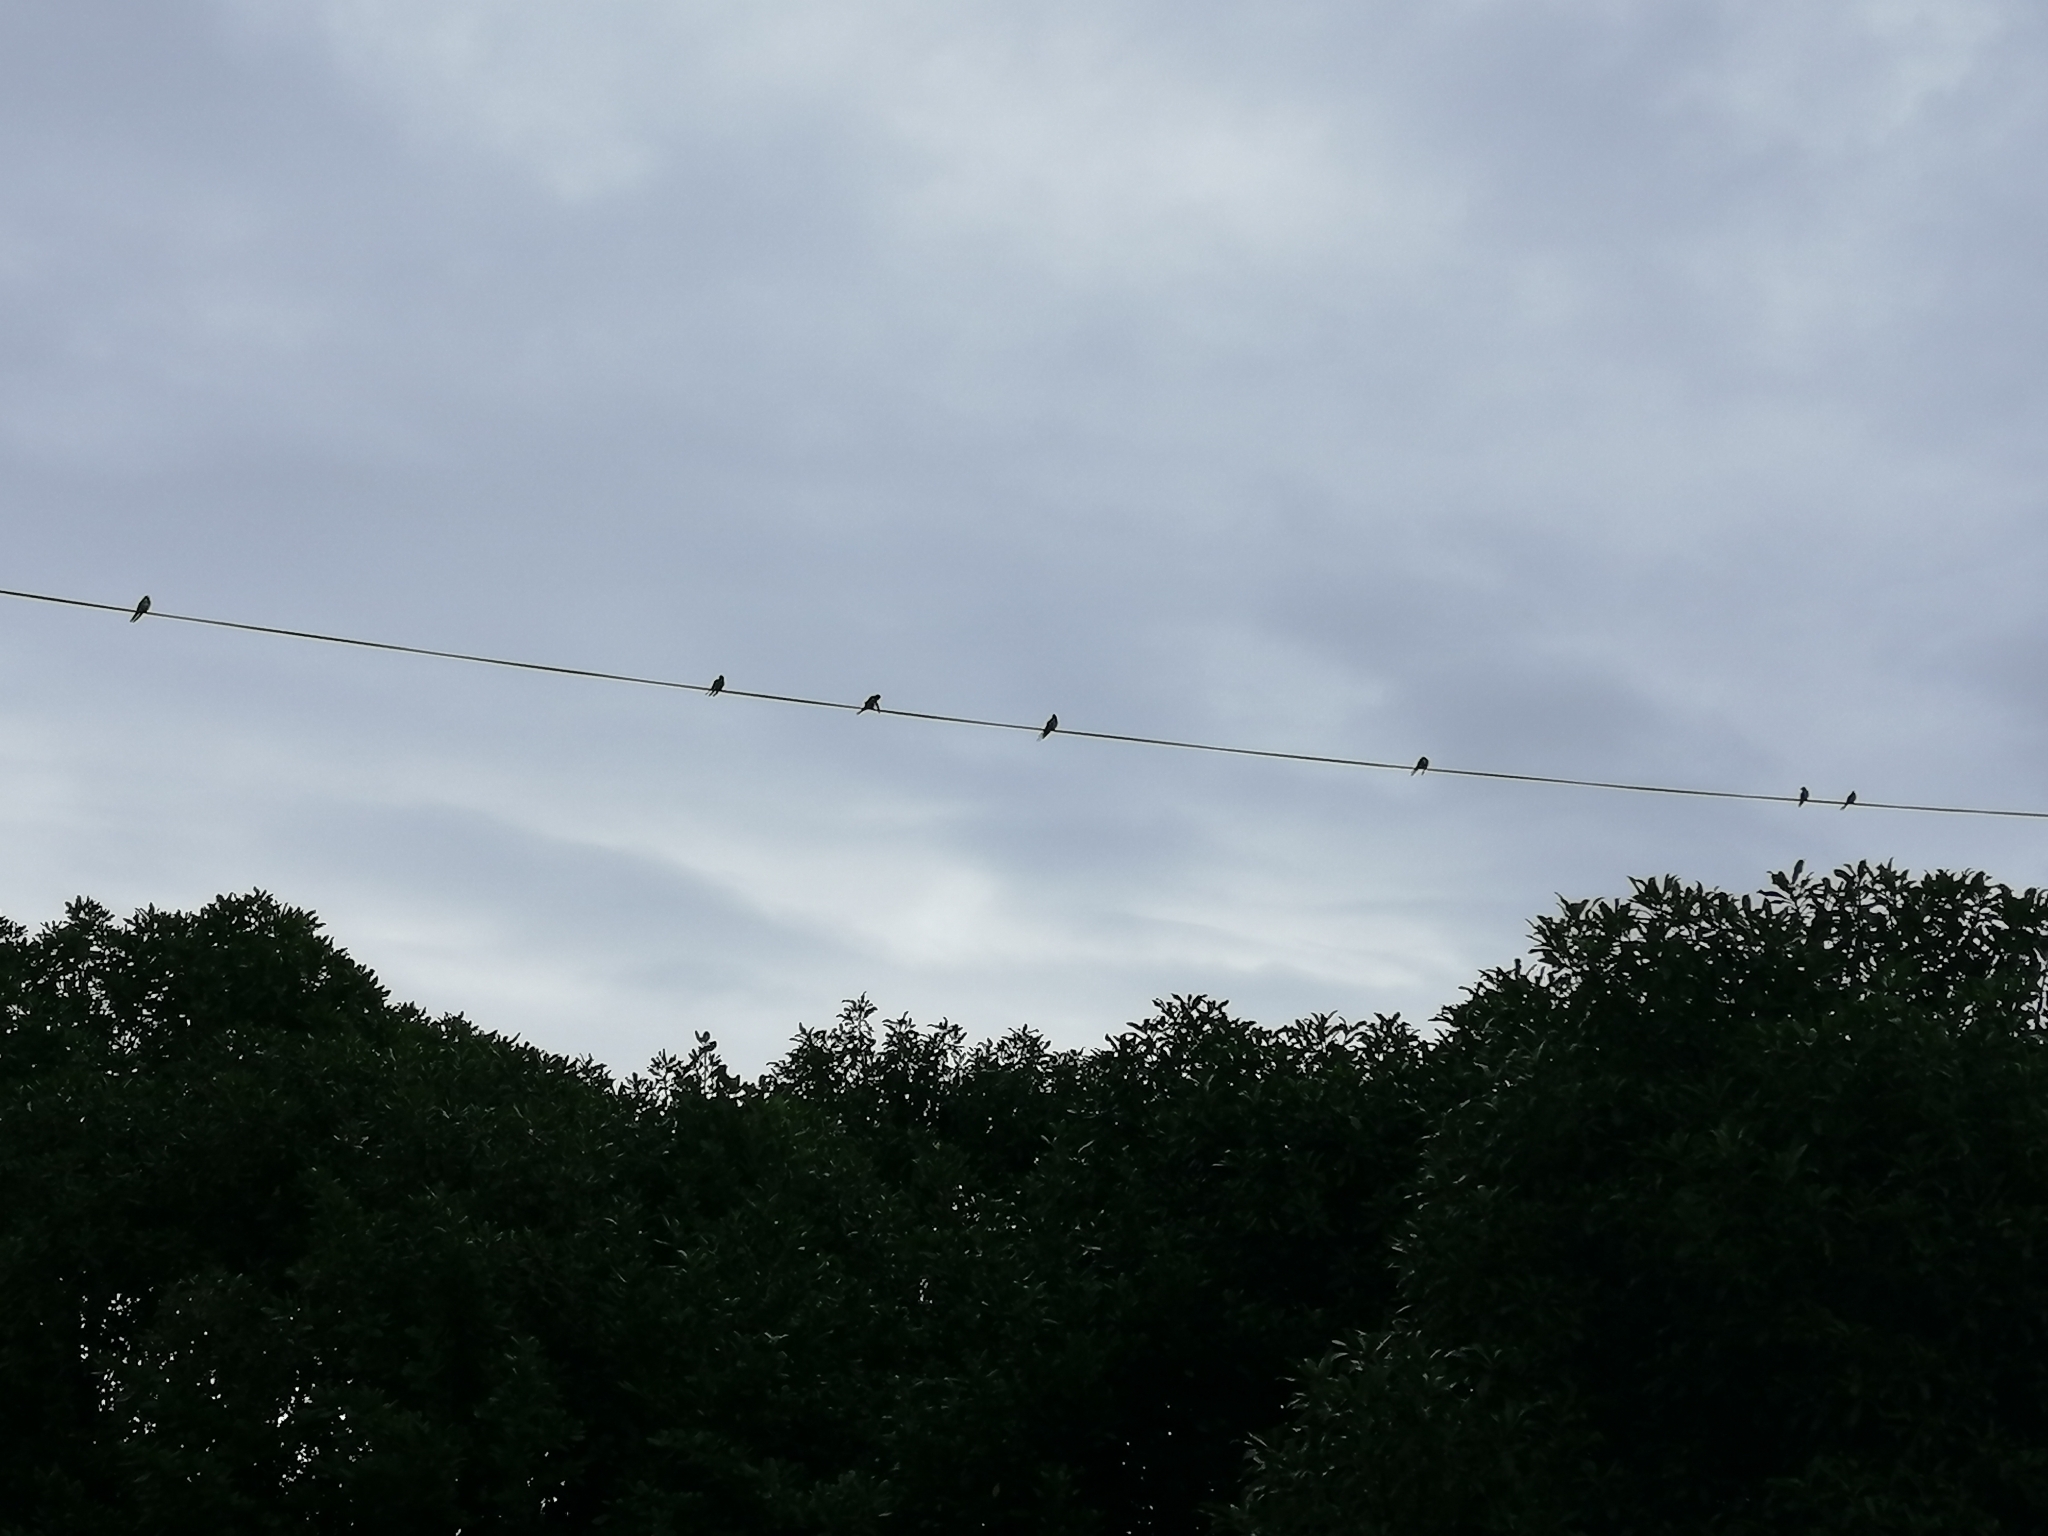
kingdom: Animalia
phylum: Chordata
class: Aves
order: Passeriformes
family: Hirundinidae
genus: Hirundo
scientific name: Hirundo neoxena
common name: Welcome swallow
